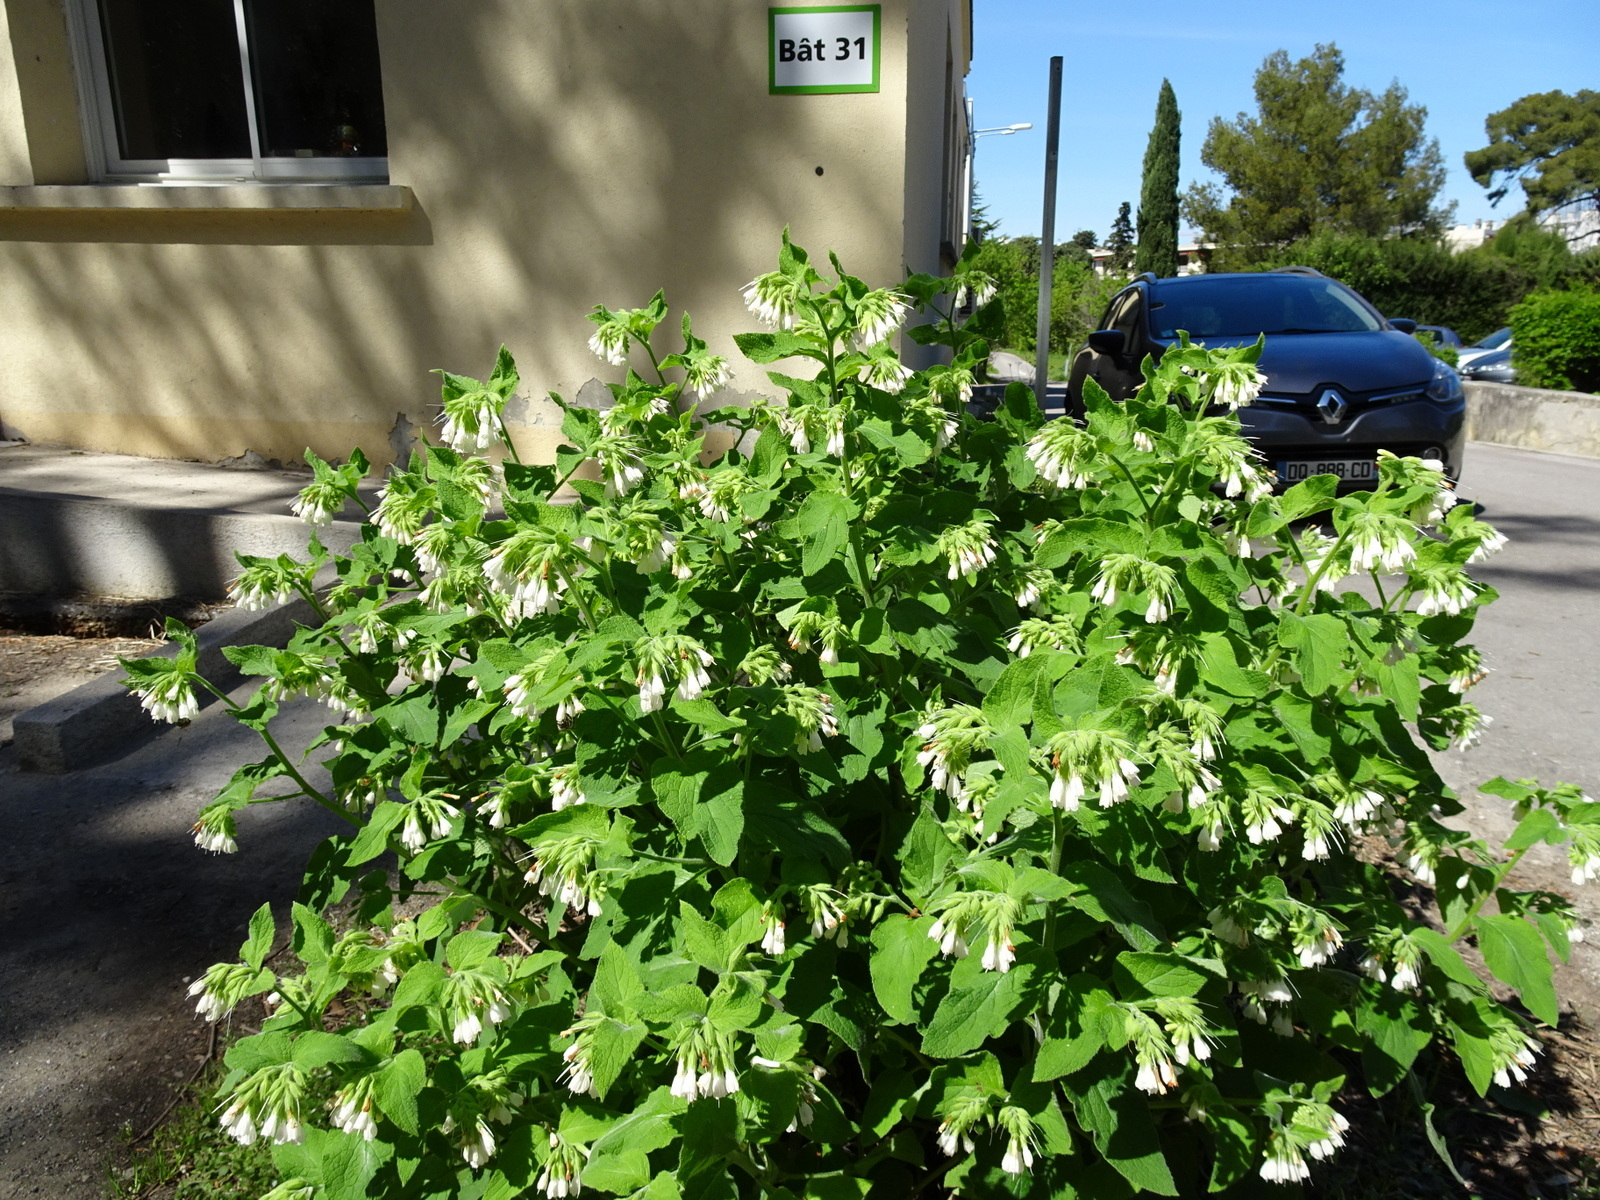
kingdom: Plantae
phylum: Tracheophyta
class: Magnoliopsida
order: Boraginales
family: Boraginaceae
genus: Symphytum
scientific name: Symphytum orientale
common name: White comfrey
